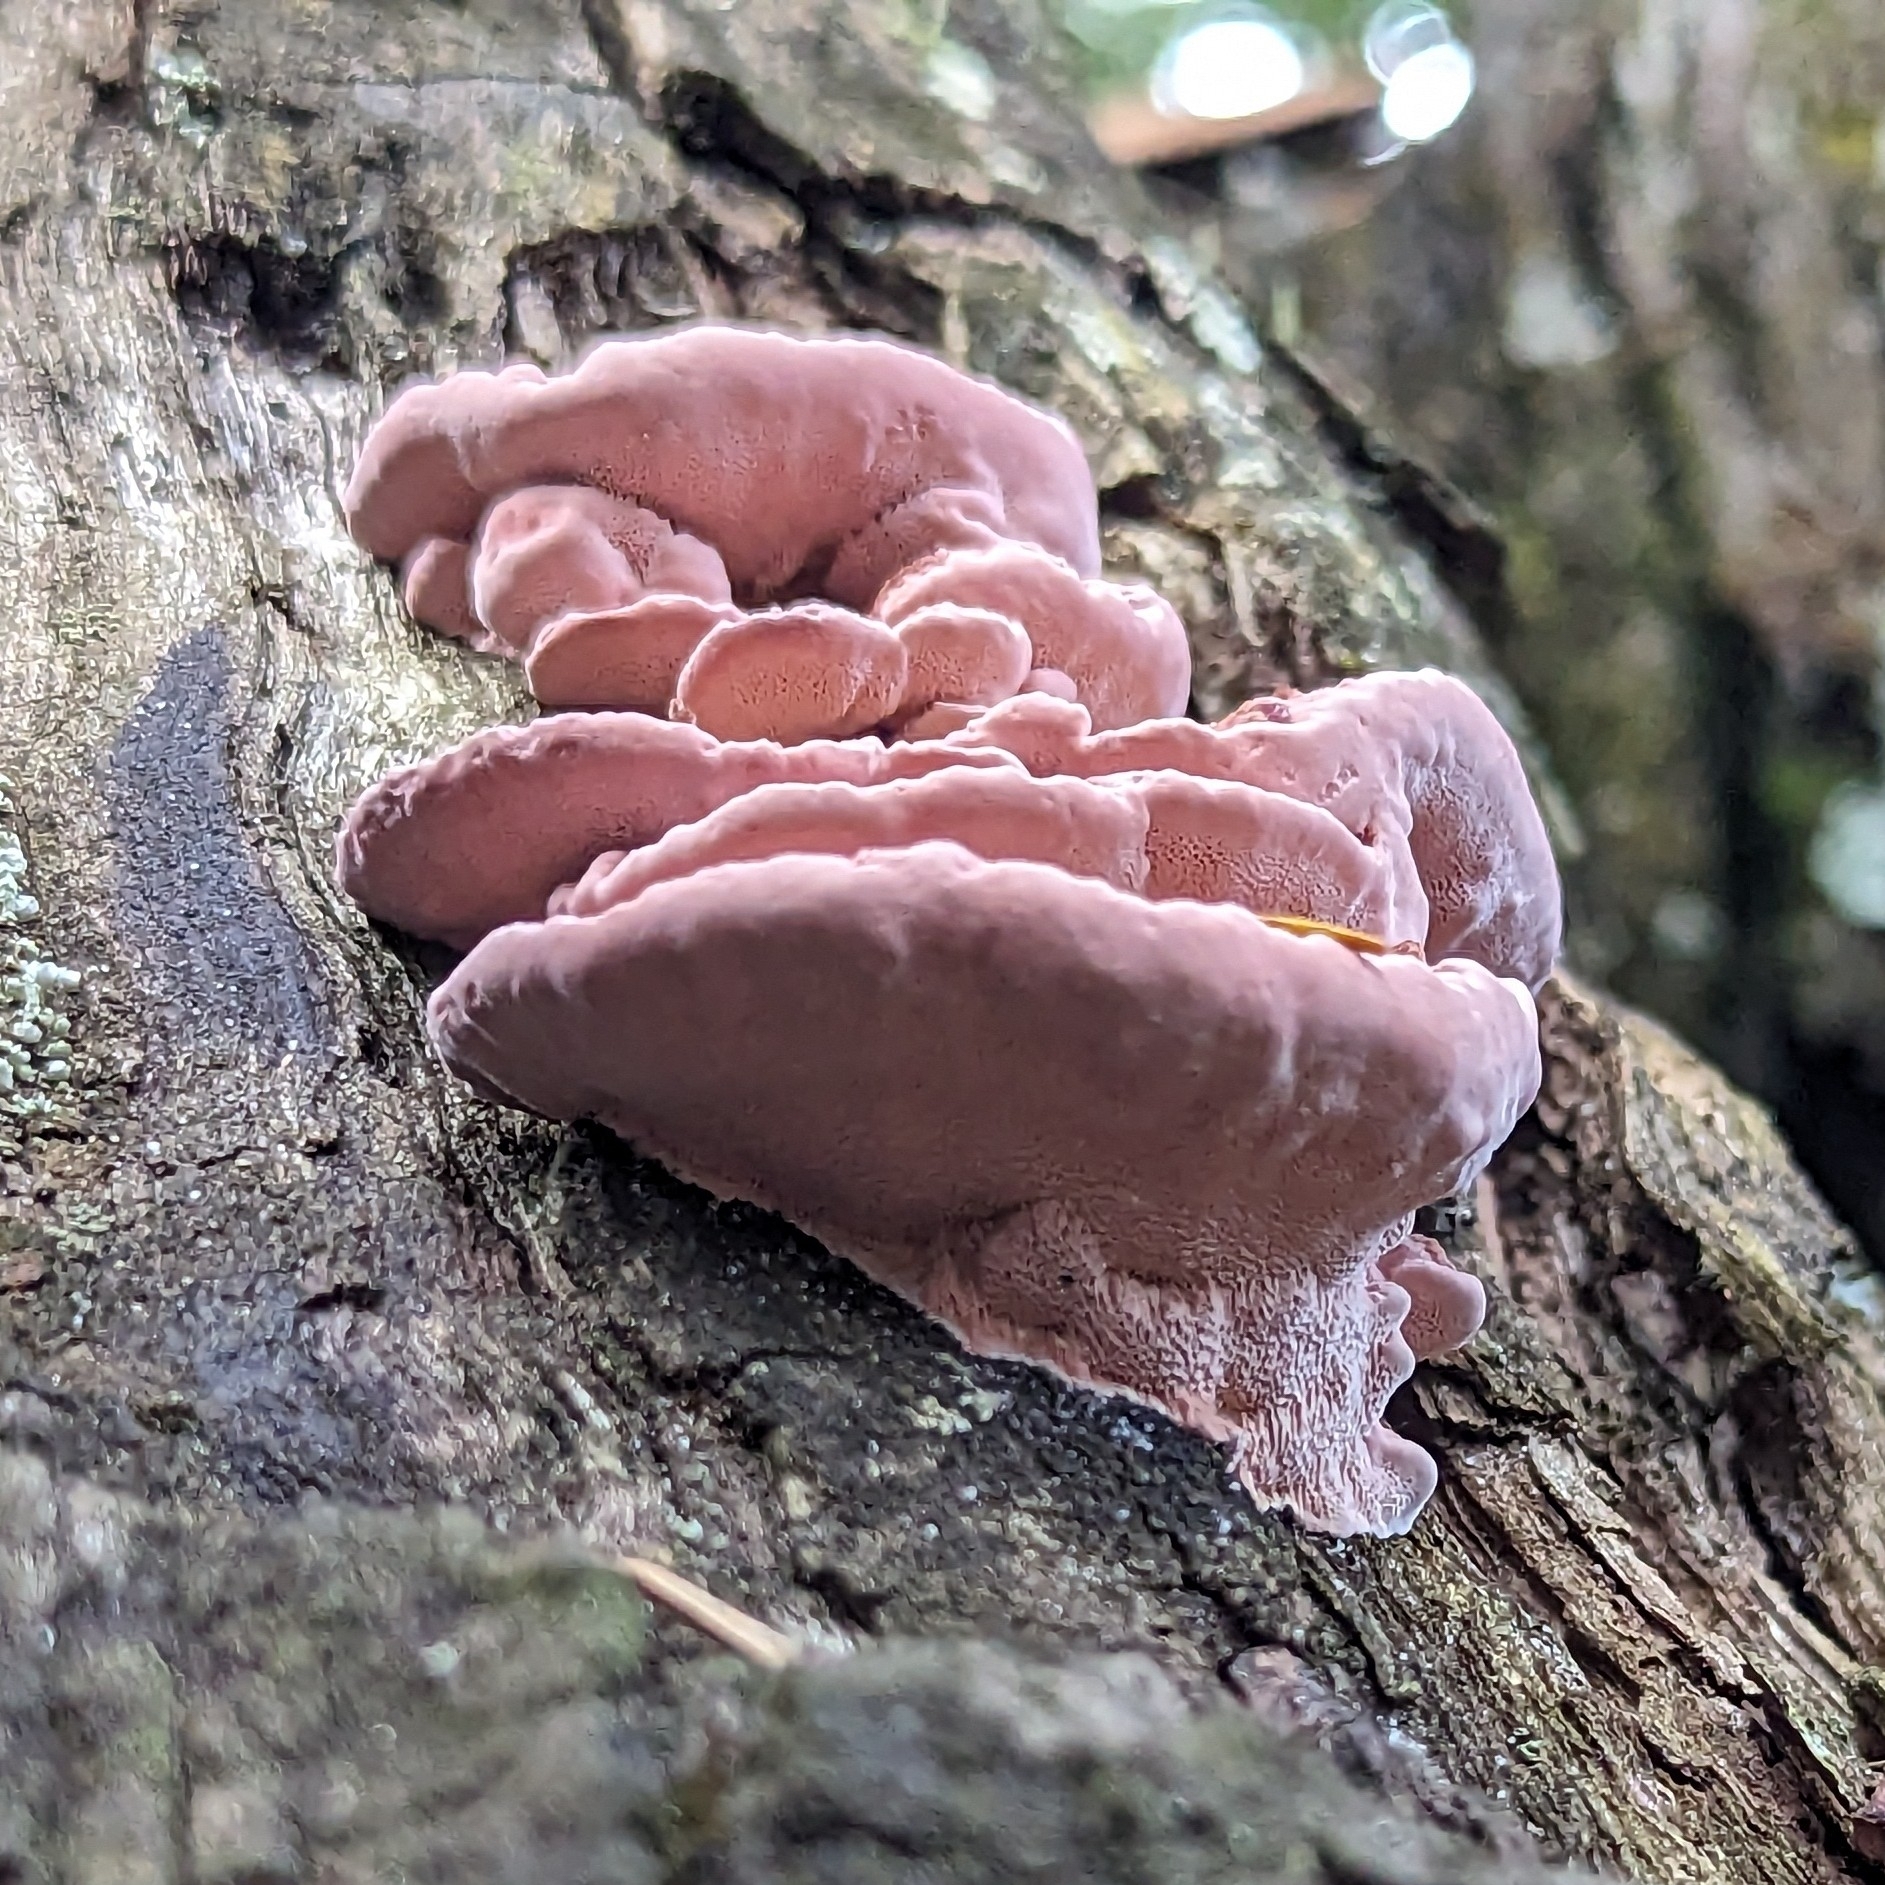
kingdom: Fungi
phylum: Basidiomycota
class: Agaricomycetes
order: Polyporales
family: Fomitopsidaceae
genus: Rhodofomitopsis
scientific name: Rhodofomitopsis lilacinogilva
